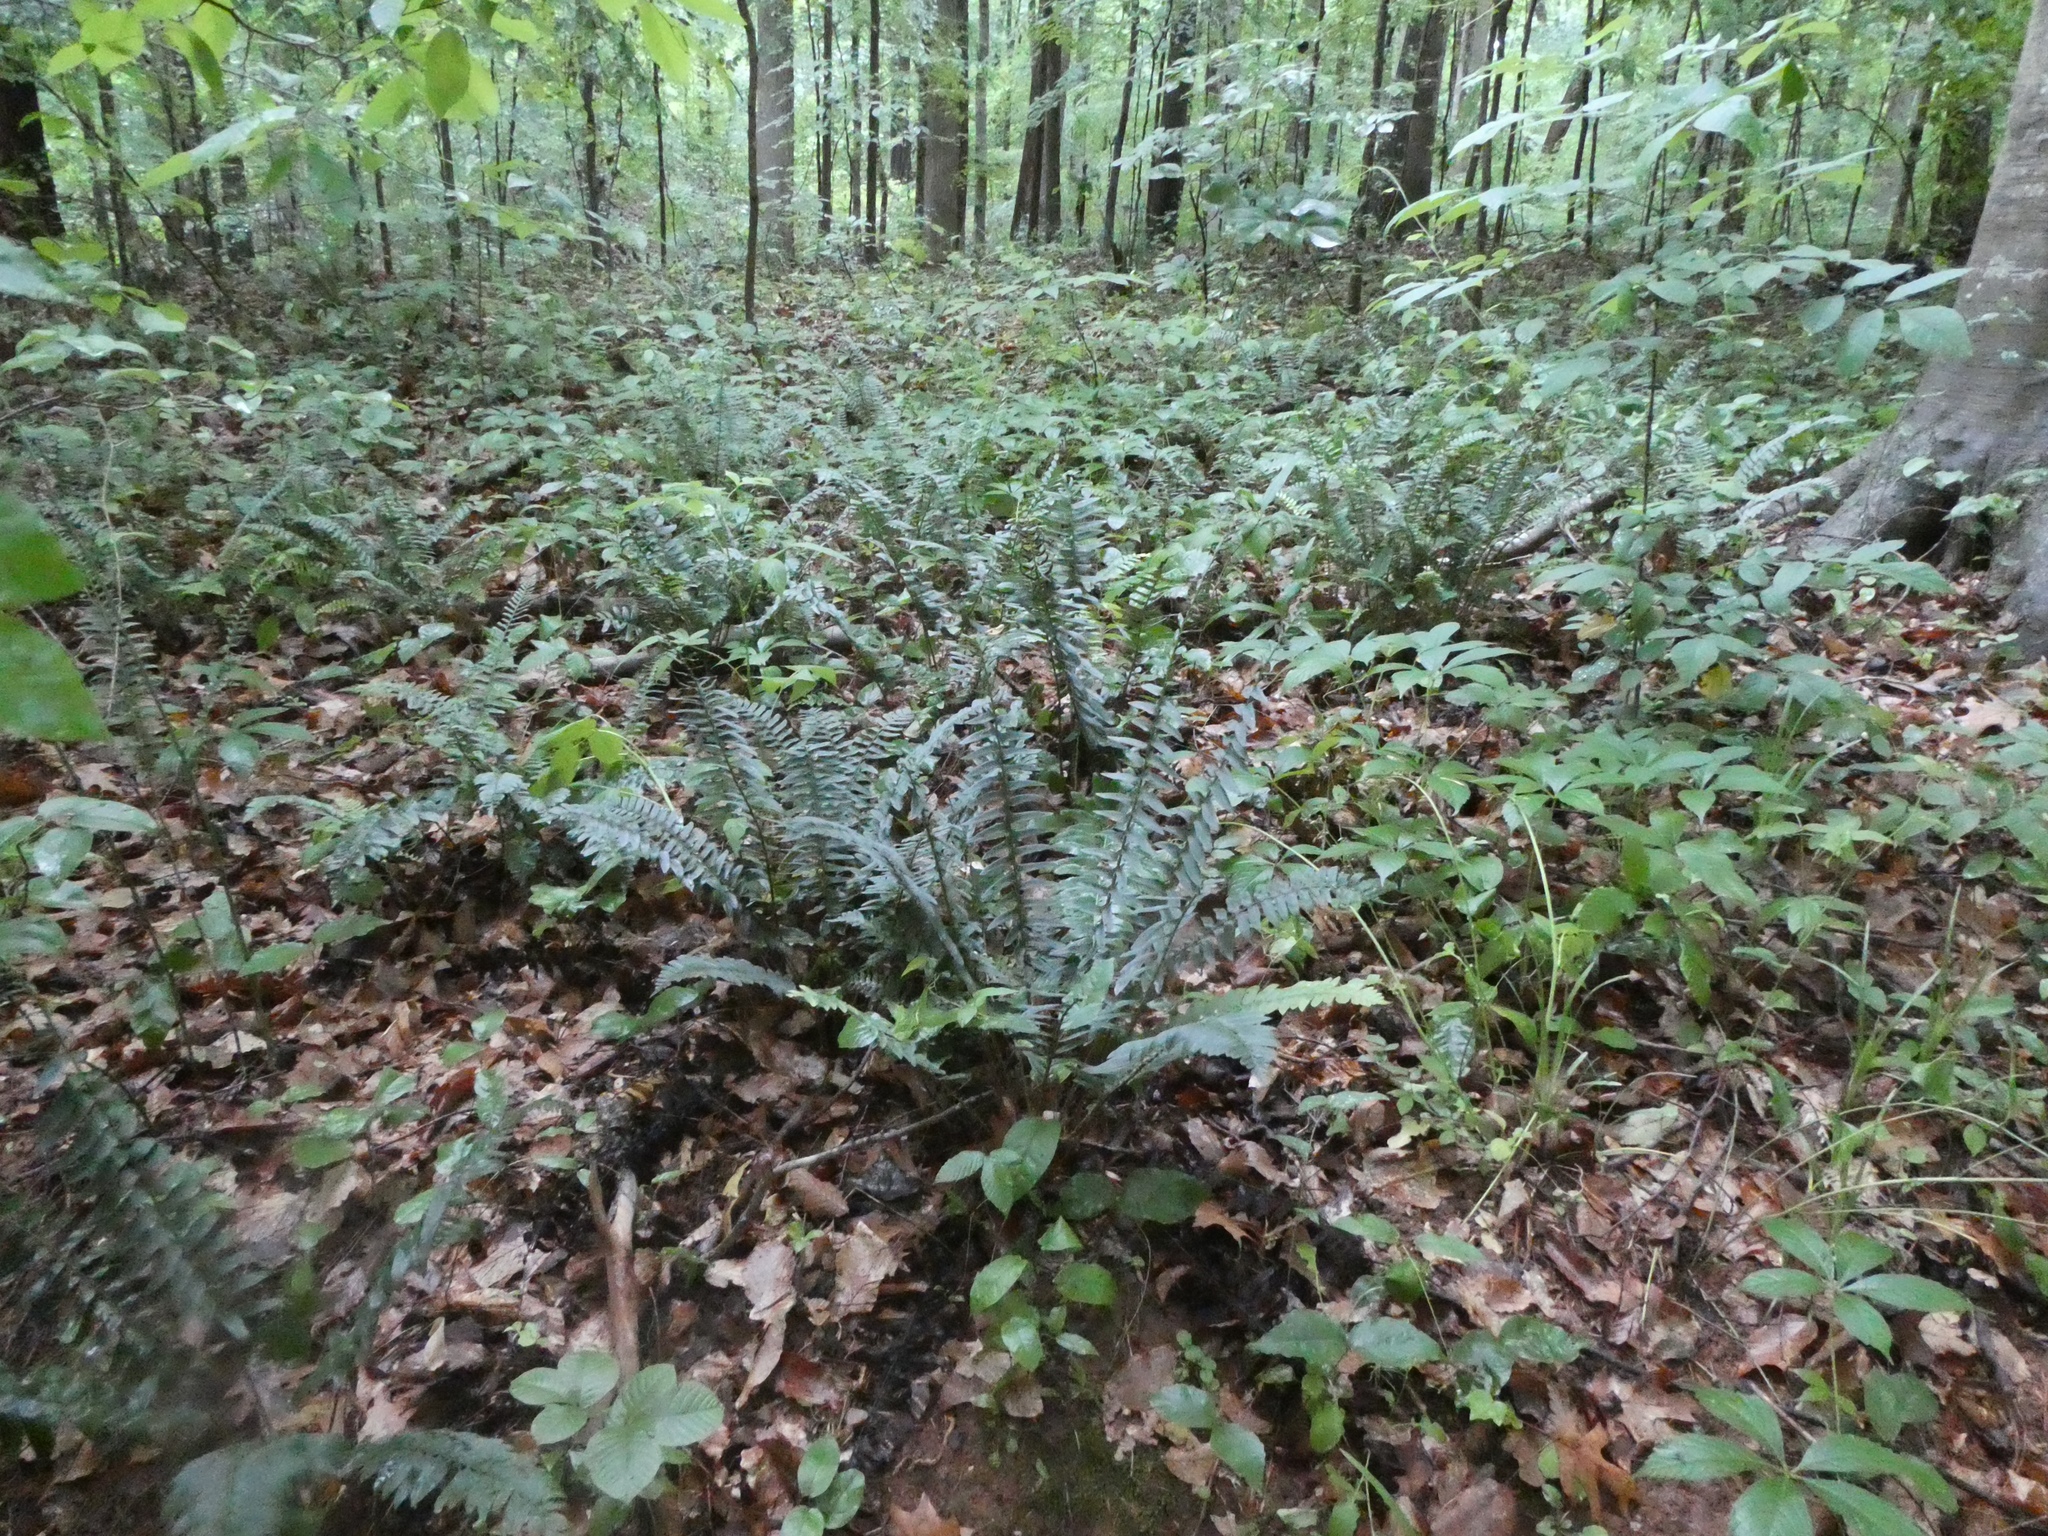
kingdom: Plantae
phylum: Tracheophyta
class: Polypodiopsida
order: Polypodiales
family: Dryopteridaceae
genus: Polystichum
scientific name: Polystichum acrostichoides
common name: Christmas fern
